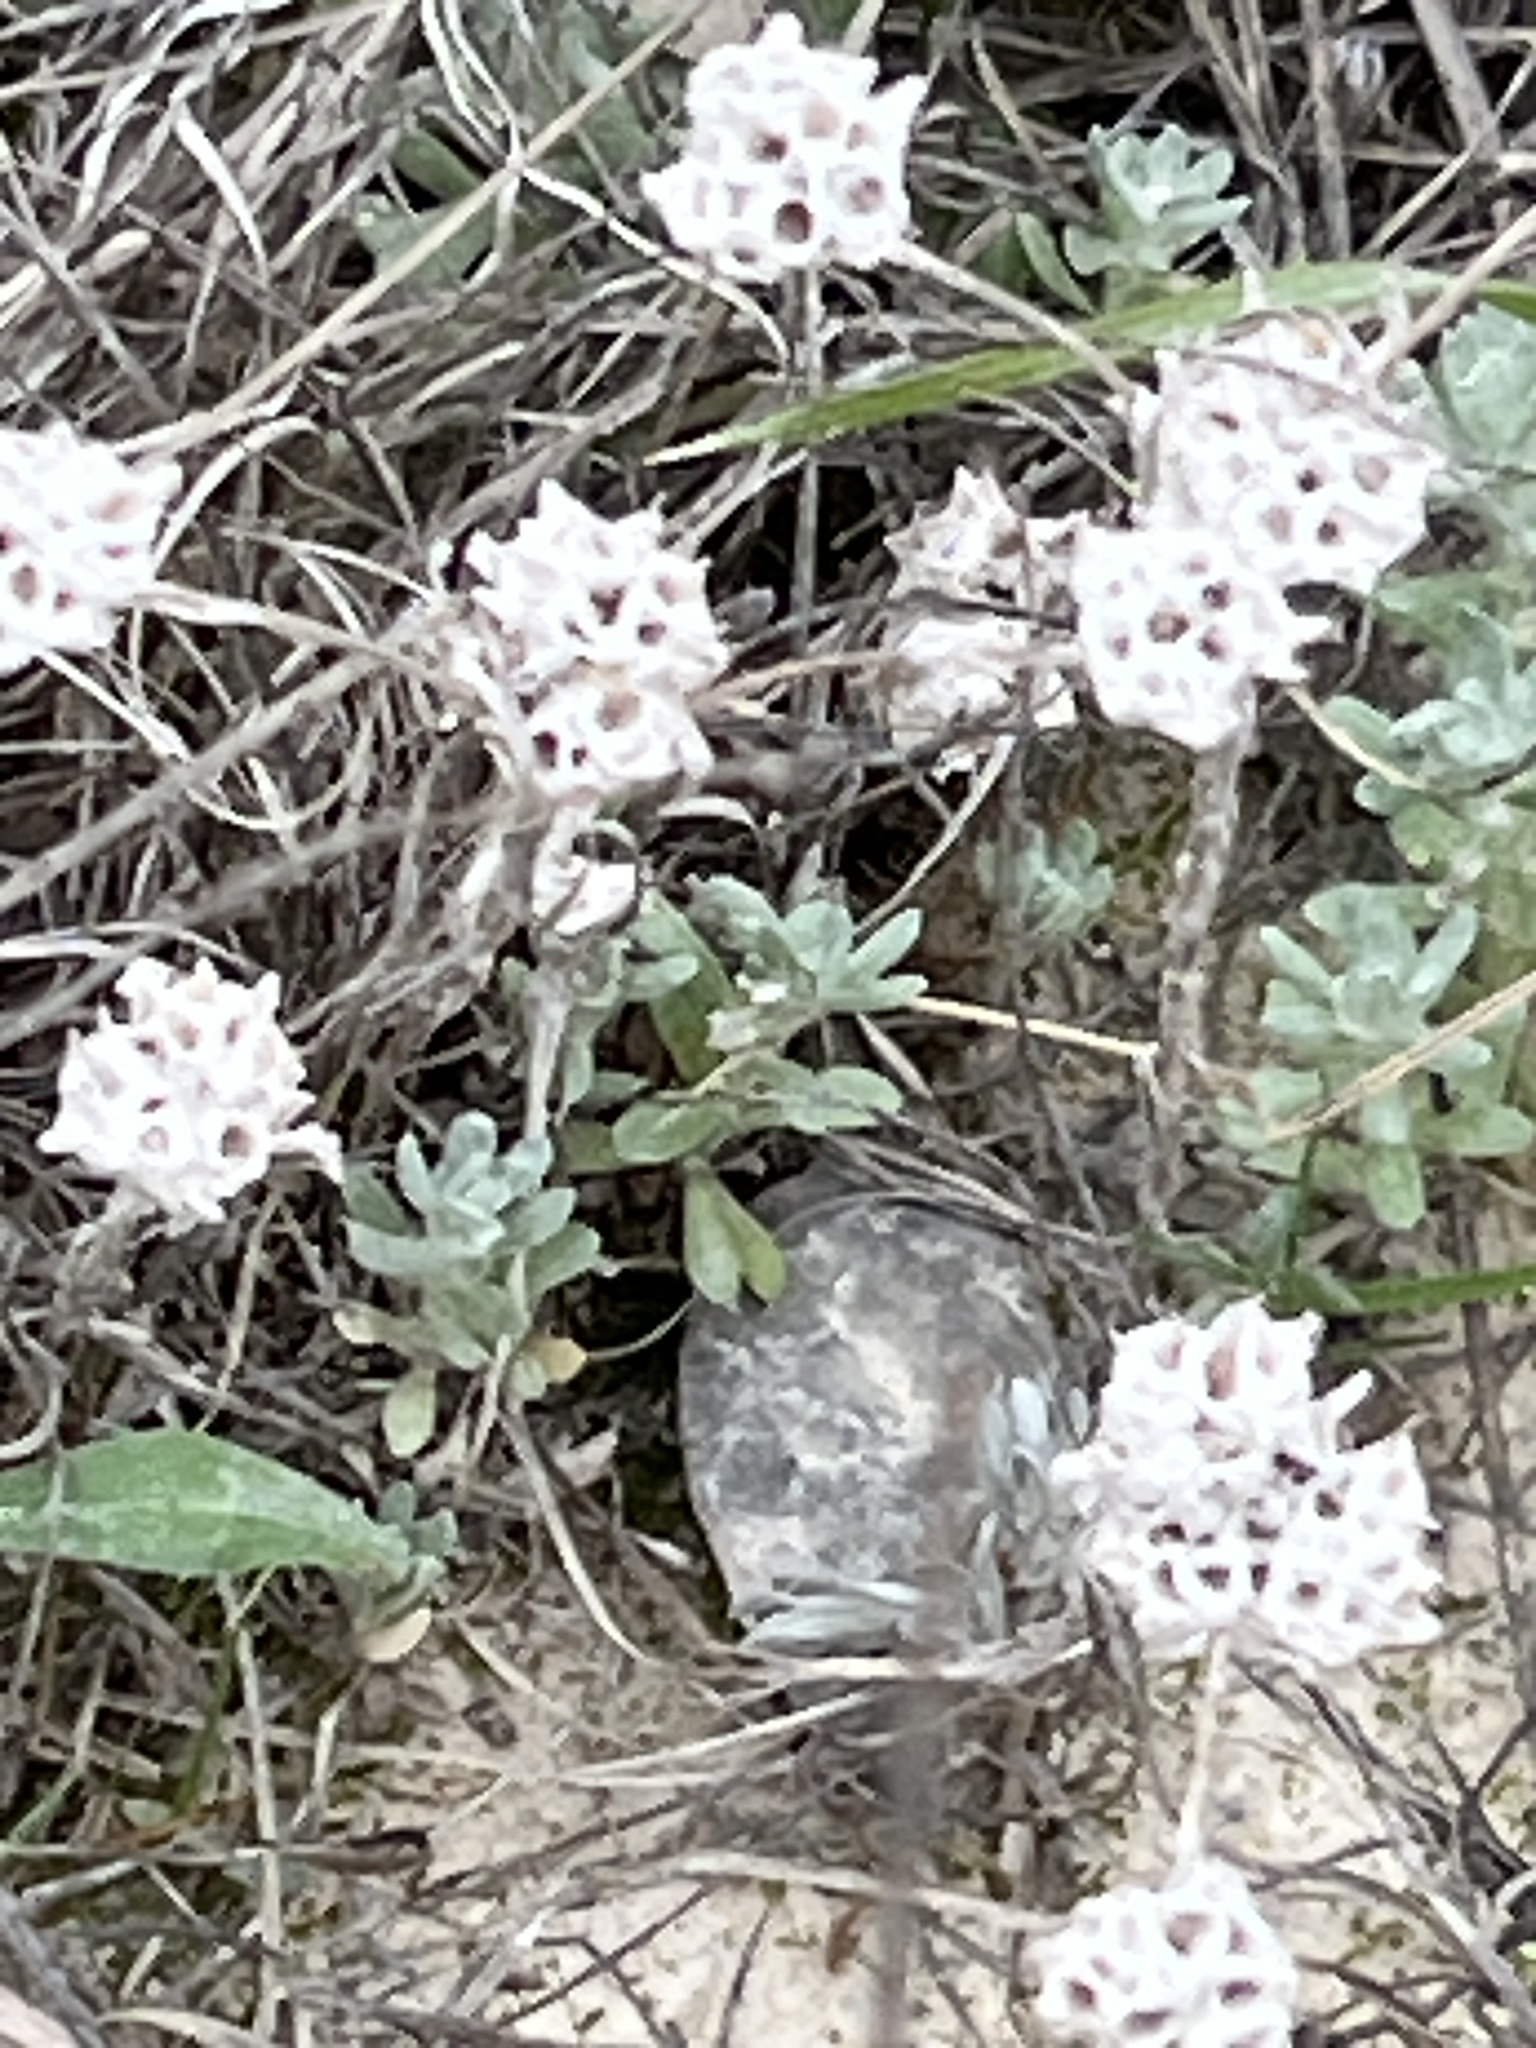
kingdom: Plantae
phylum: Tracheophyta
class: Magnoliopsida
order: Asterales
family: Asteraceae
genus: Diaperia
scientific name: Diaperia prolifera
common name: Big-head rabbit-tobacco
